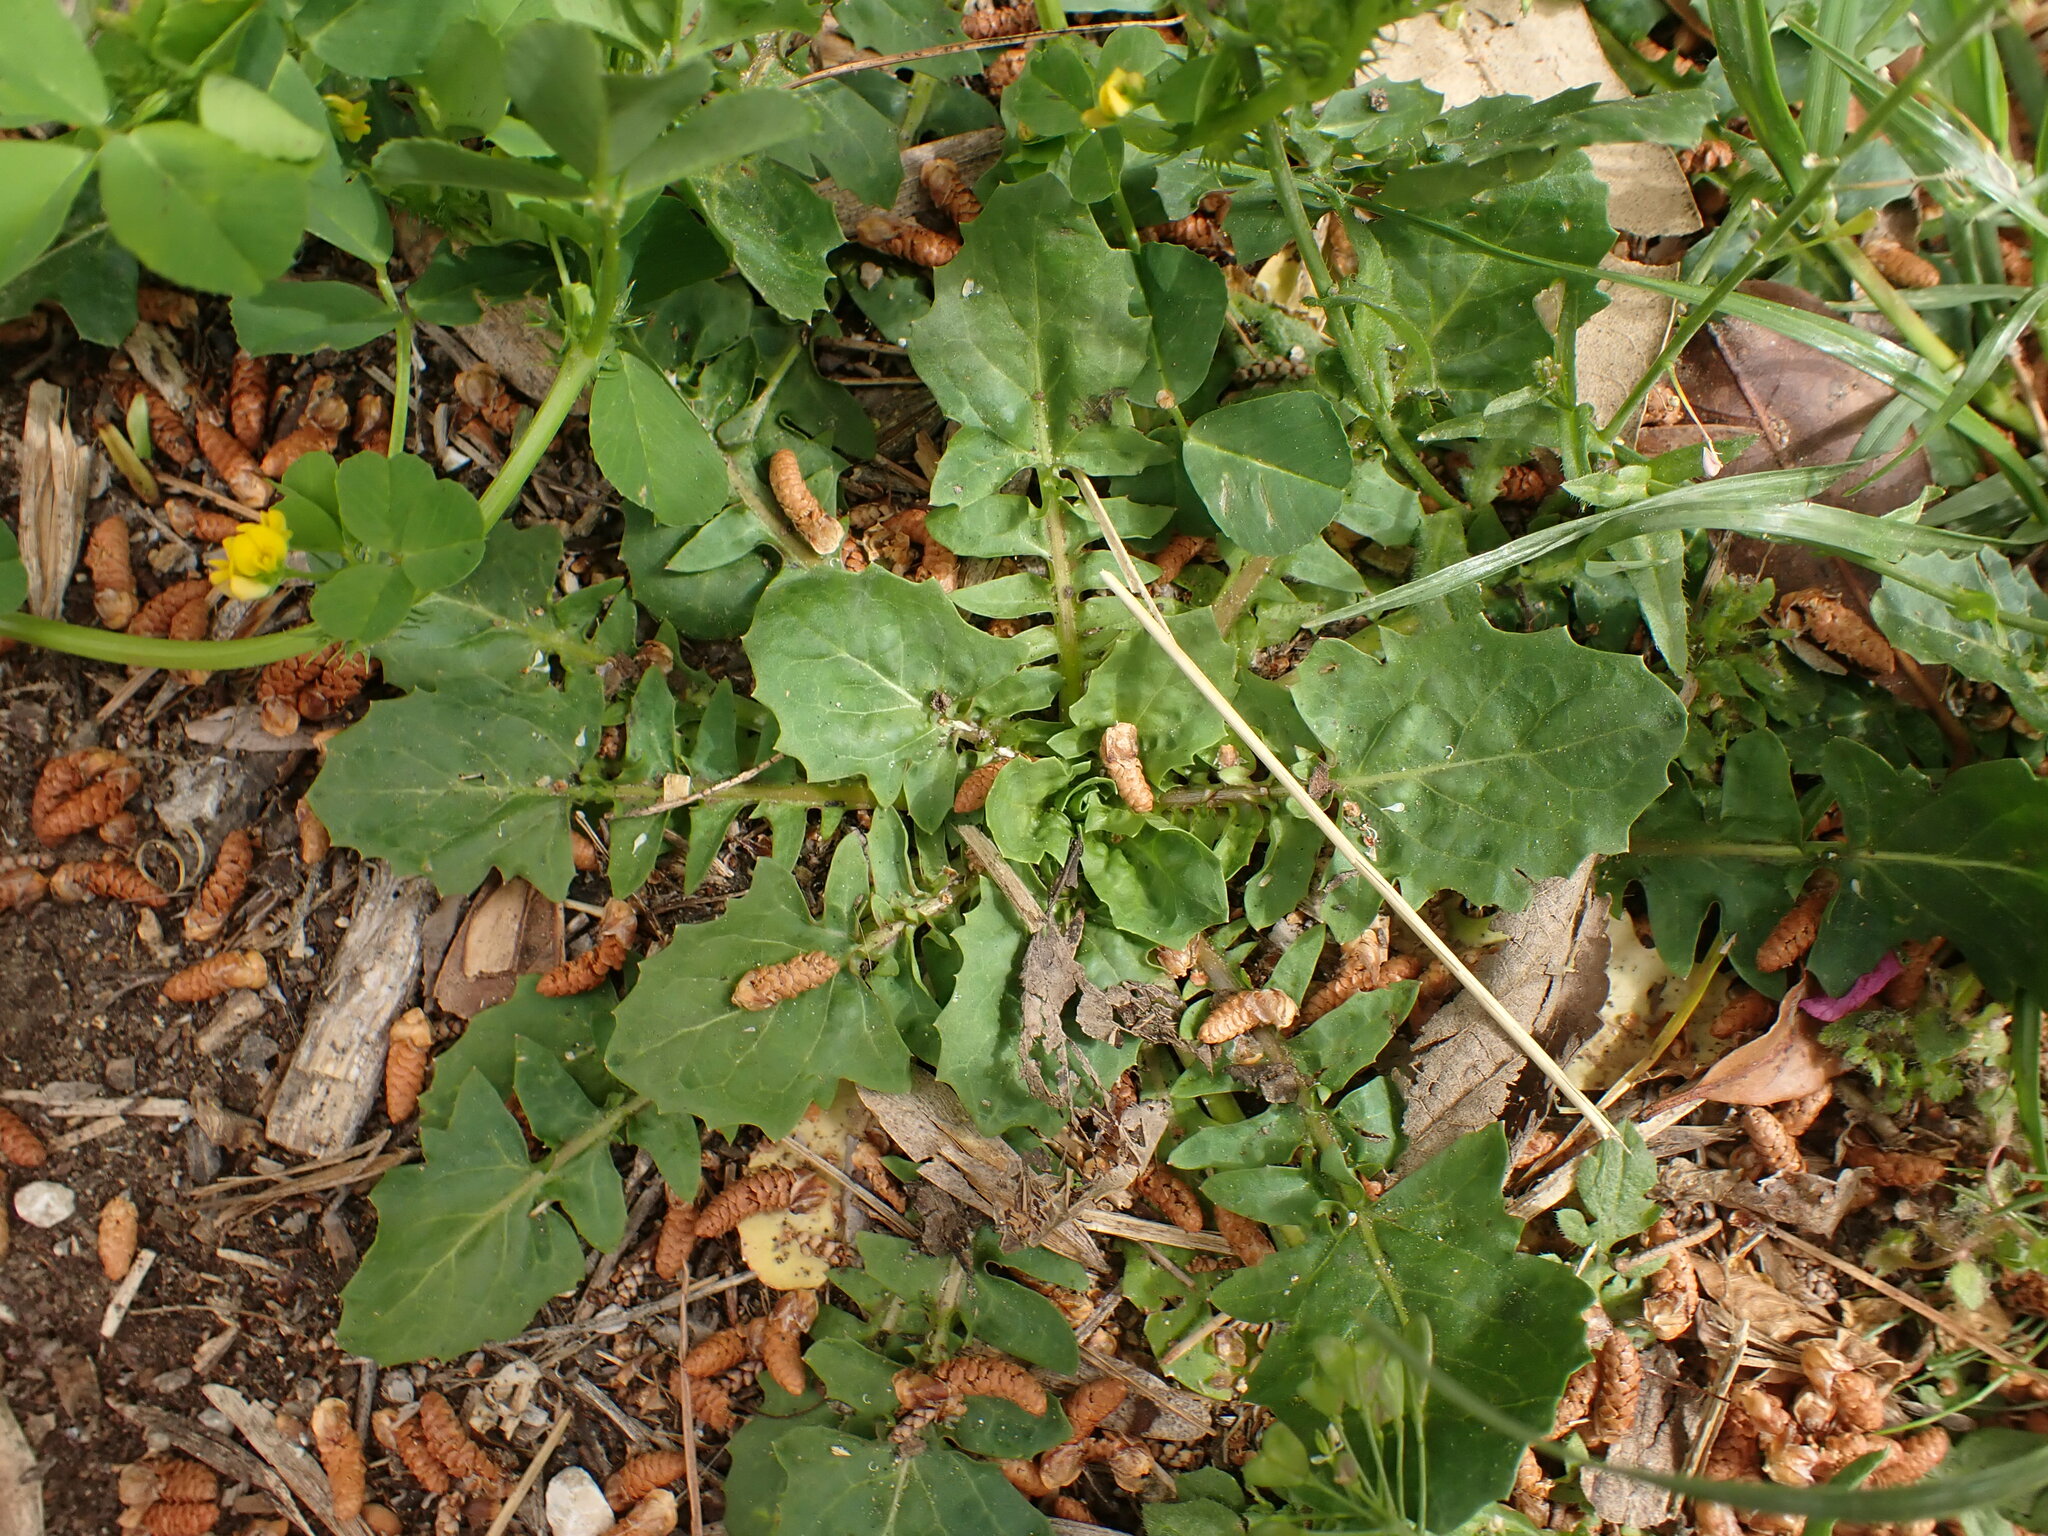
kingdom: Plantae
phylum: Tracheophyta
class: Magnoliopsida
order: Asterales
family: Asteraceae
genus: Crepis
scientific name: Crepis bursifolia
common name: Italian hawksbeard
